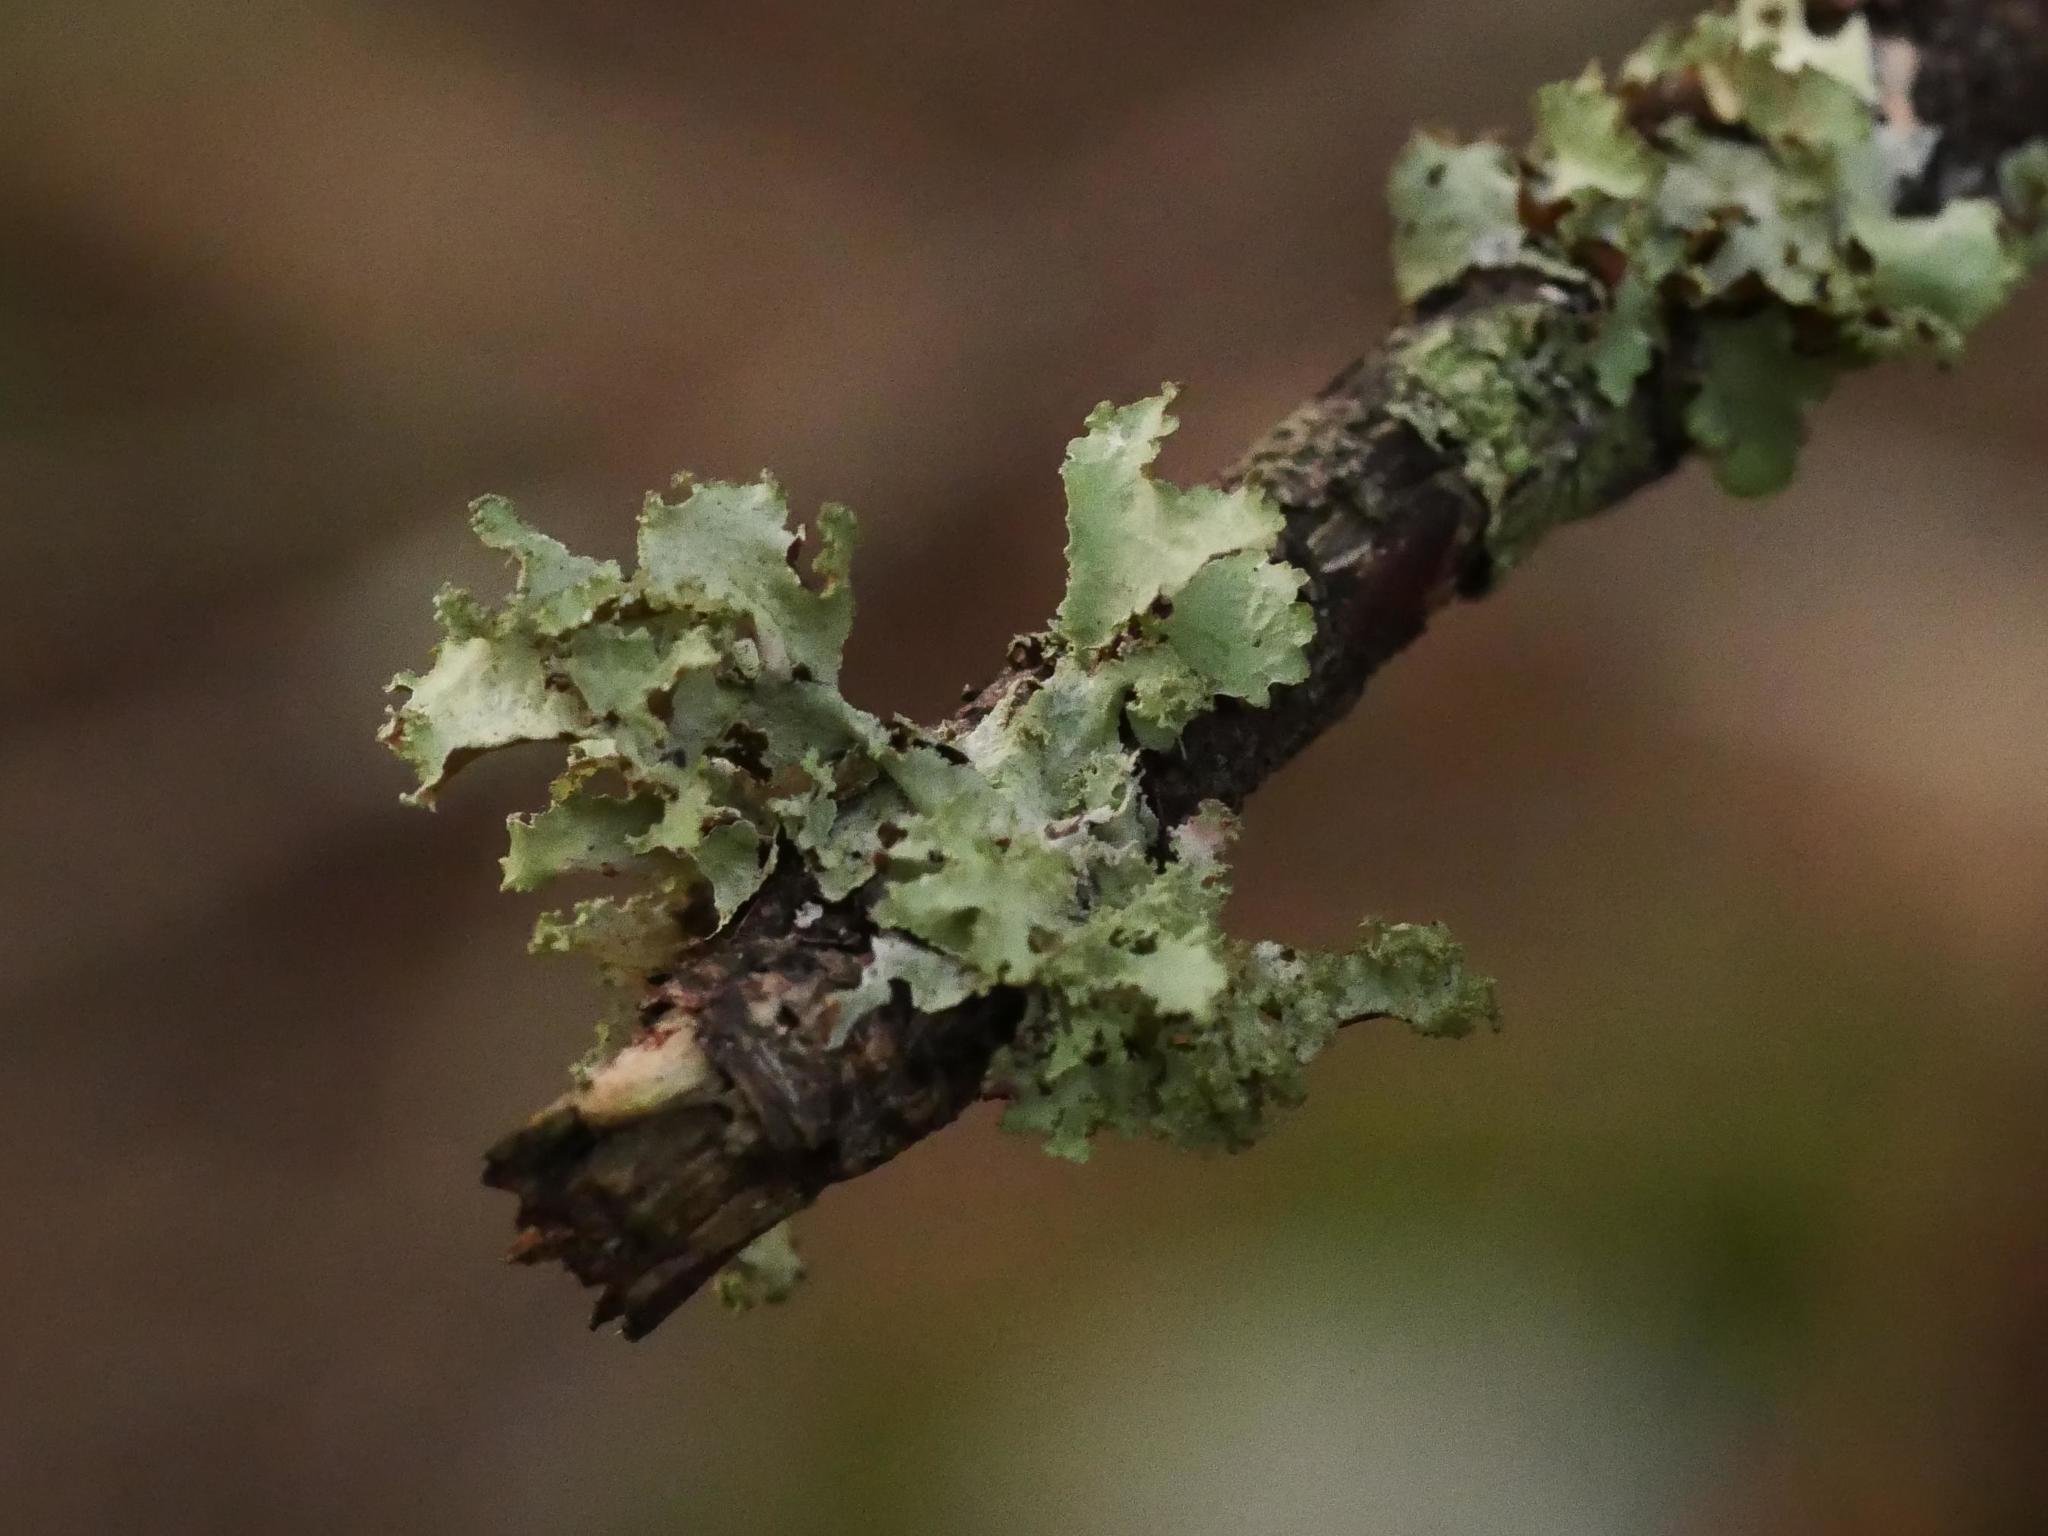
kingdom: Fungi
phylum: Ascomycota
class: Lecanoromycetes
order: Lecanorales
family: Parmeliaceae
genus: Platismatia
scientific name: Platismatia glauca
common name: Varied rag lichen
